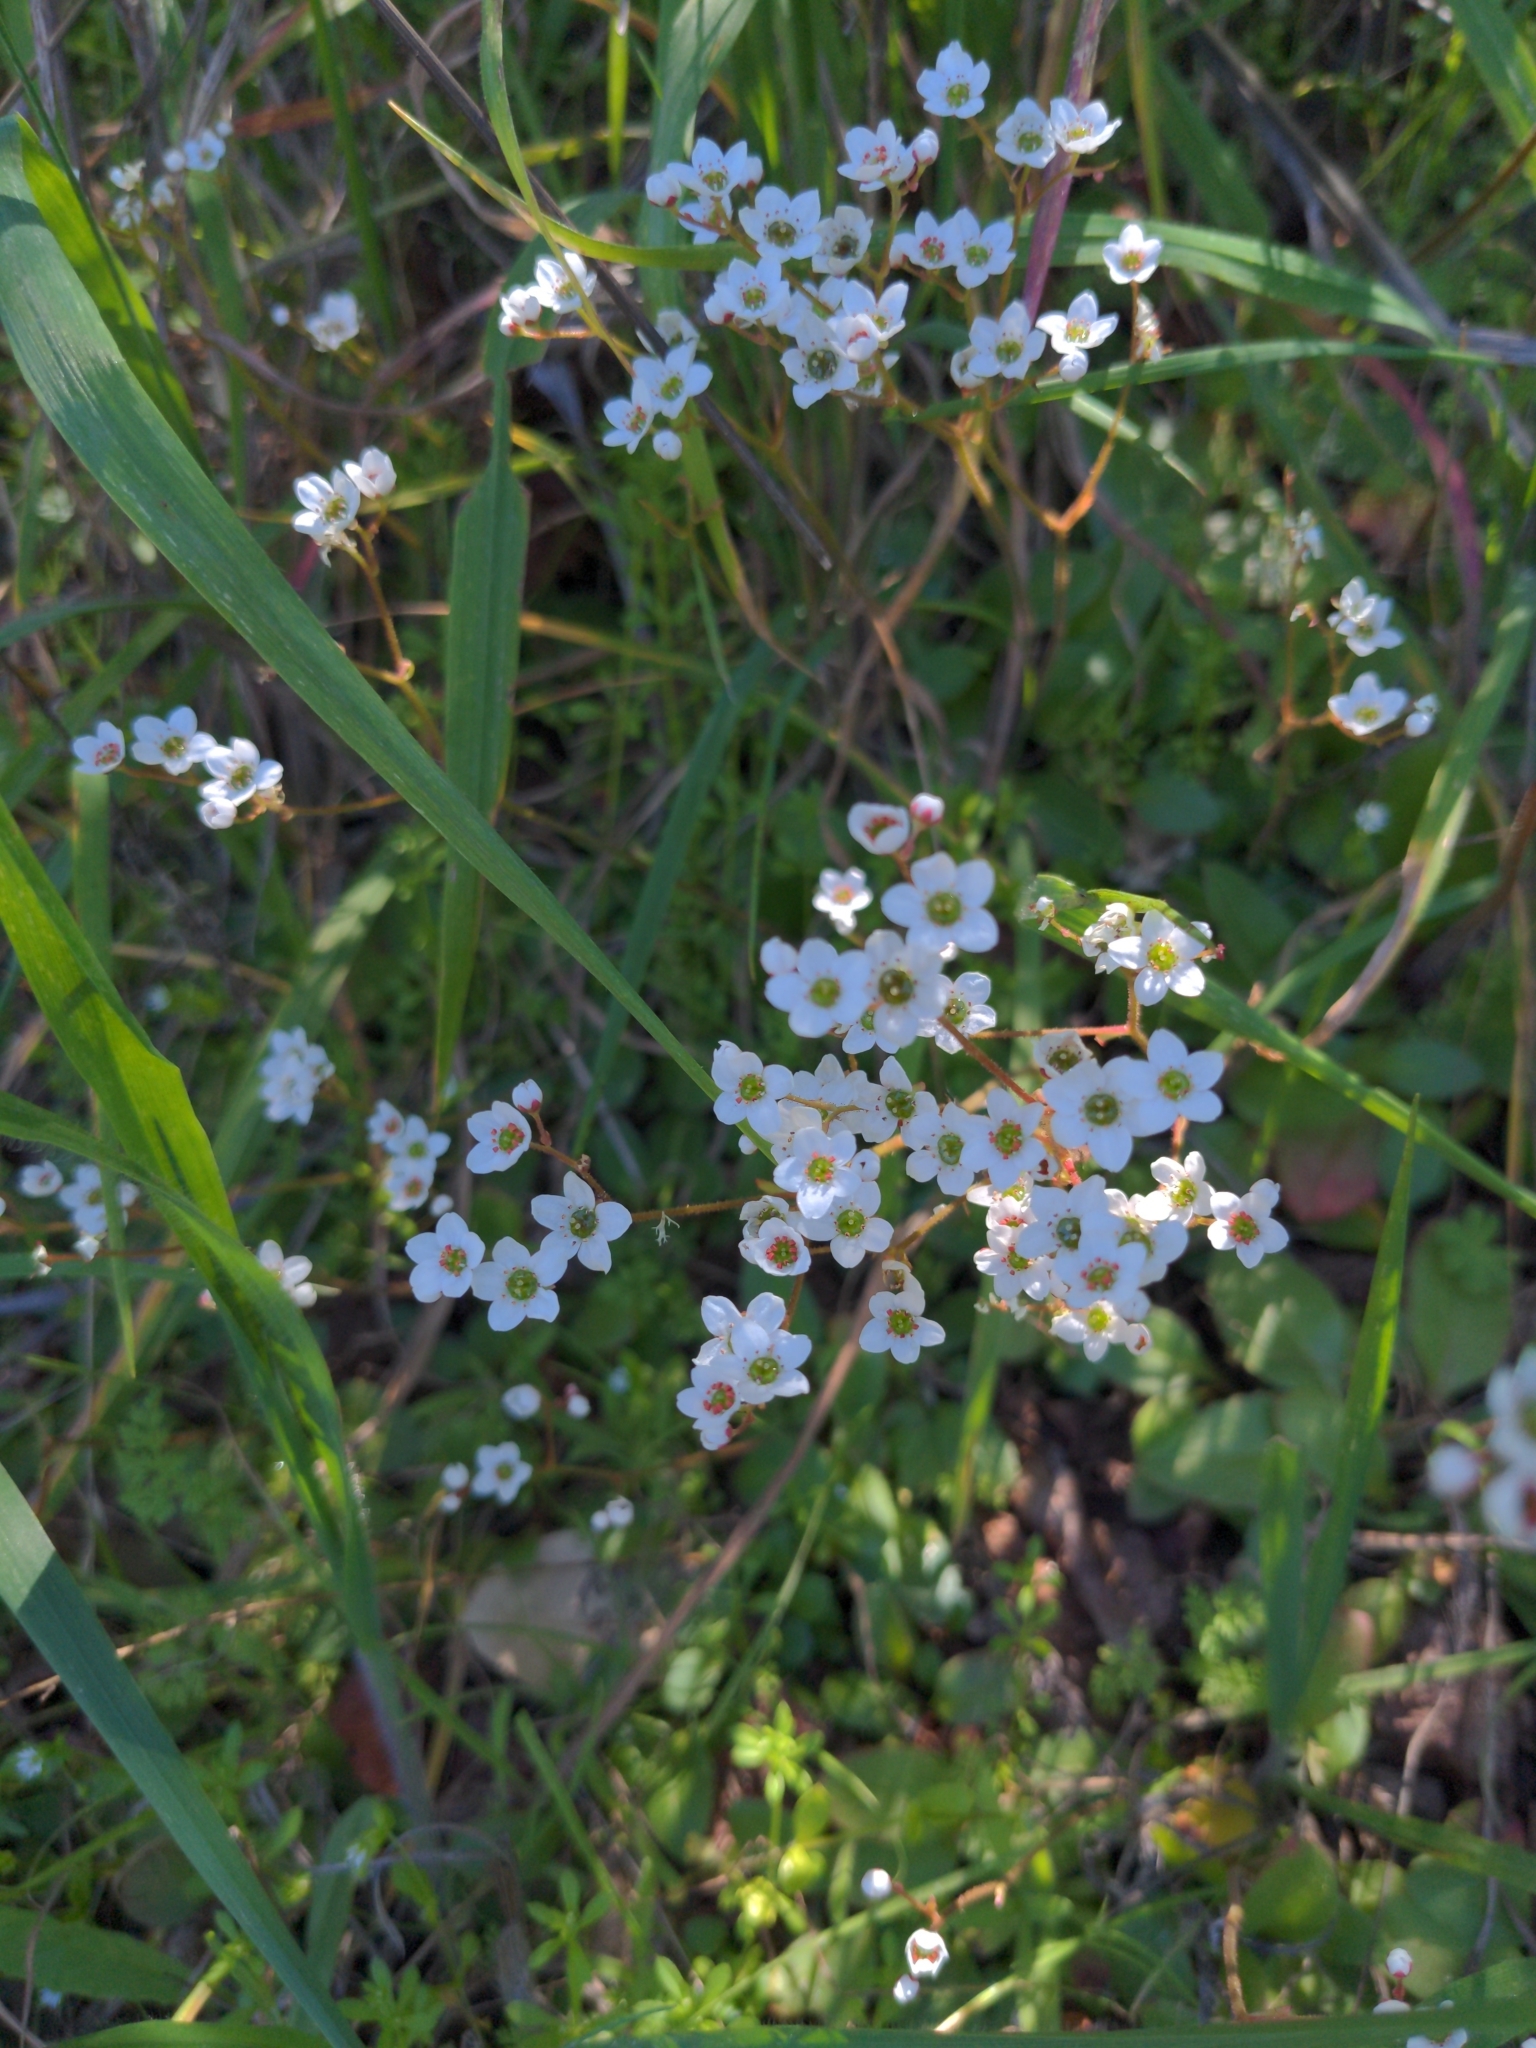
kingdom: Plantae
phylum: Tracheophyta
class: Magnoliopsida
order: Saxifragales
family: Saxifragaceae
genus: Micranthes
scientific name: Micranthes californica
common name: California saxifrage
